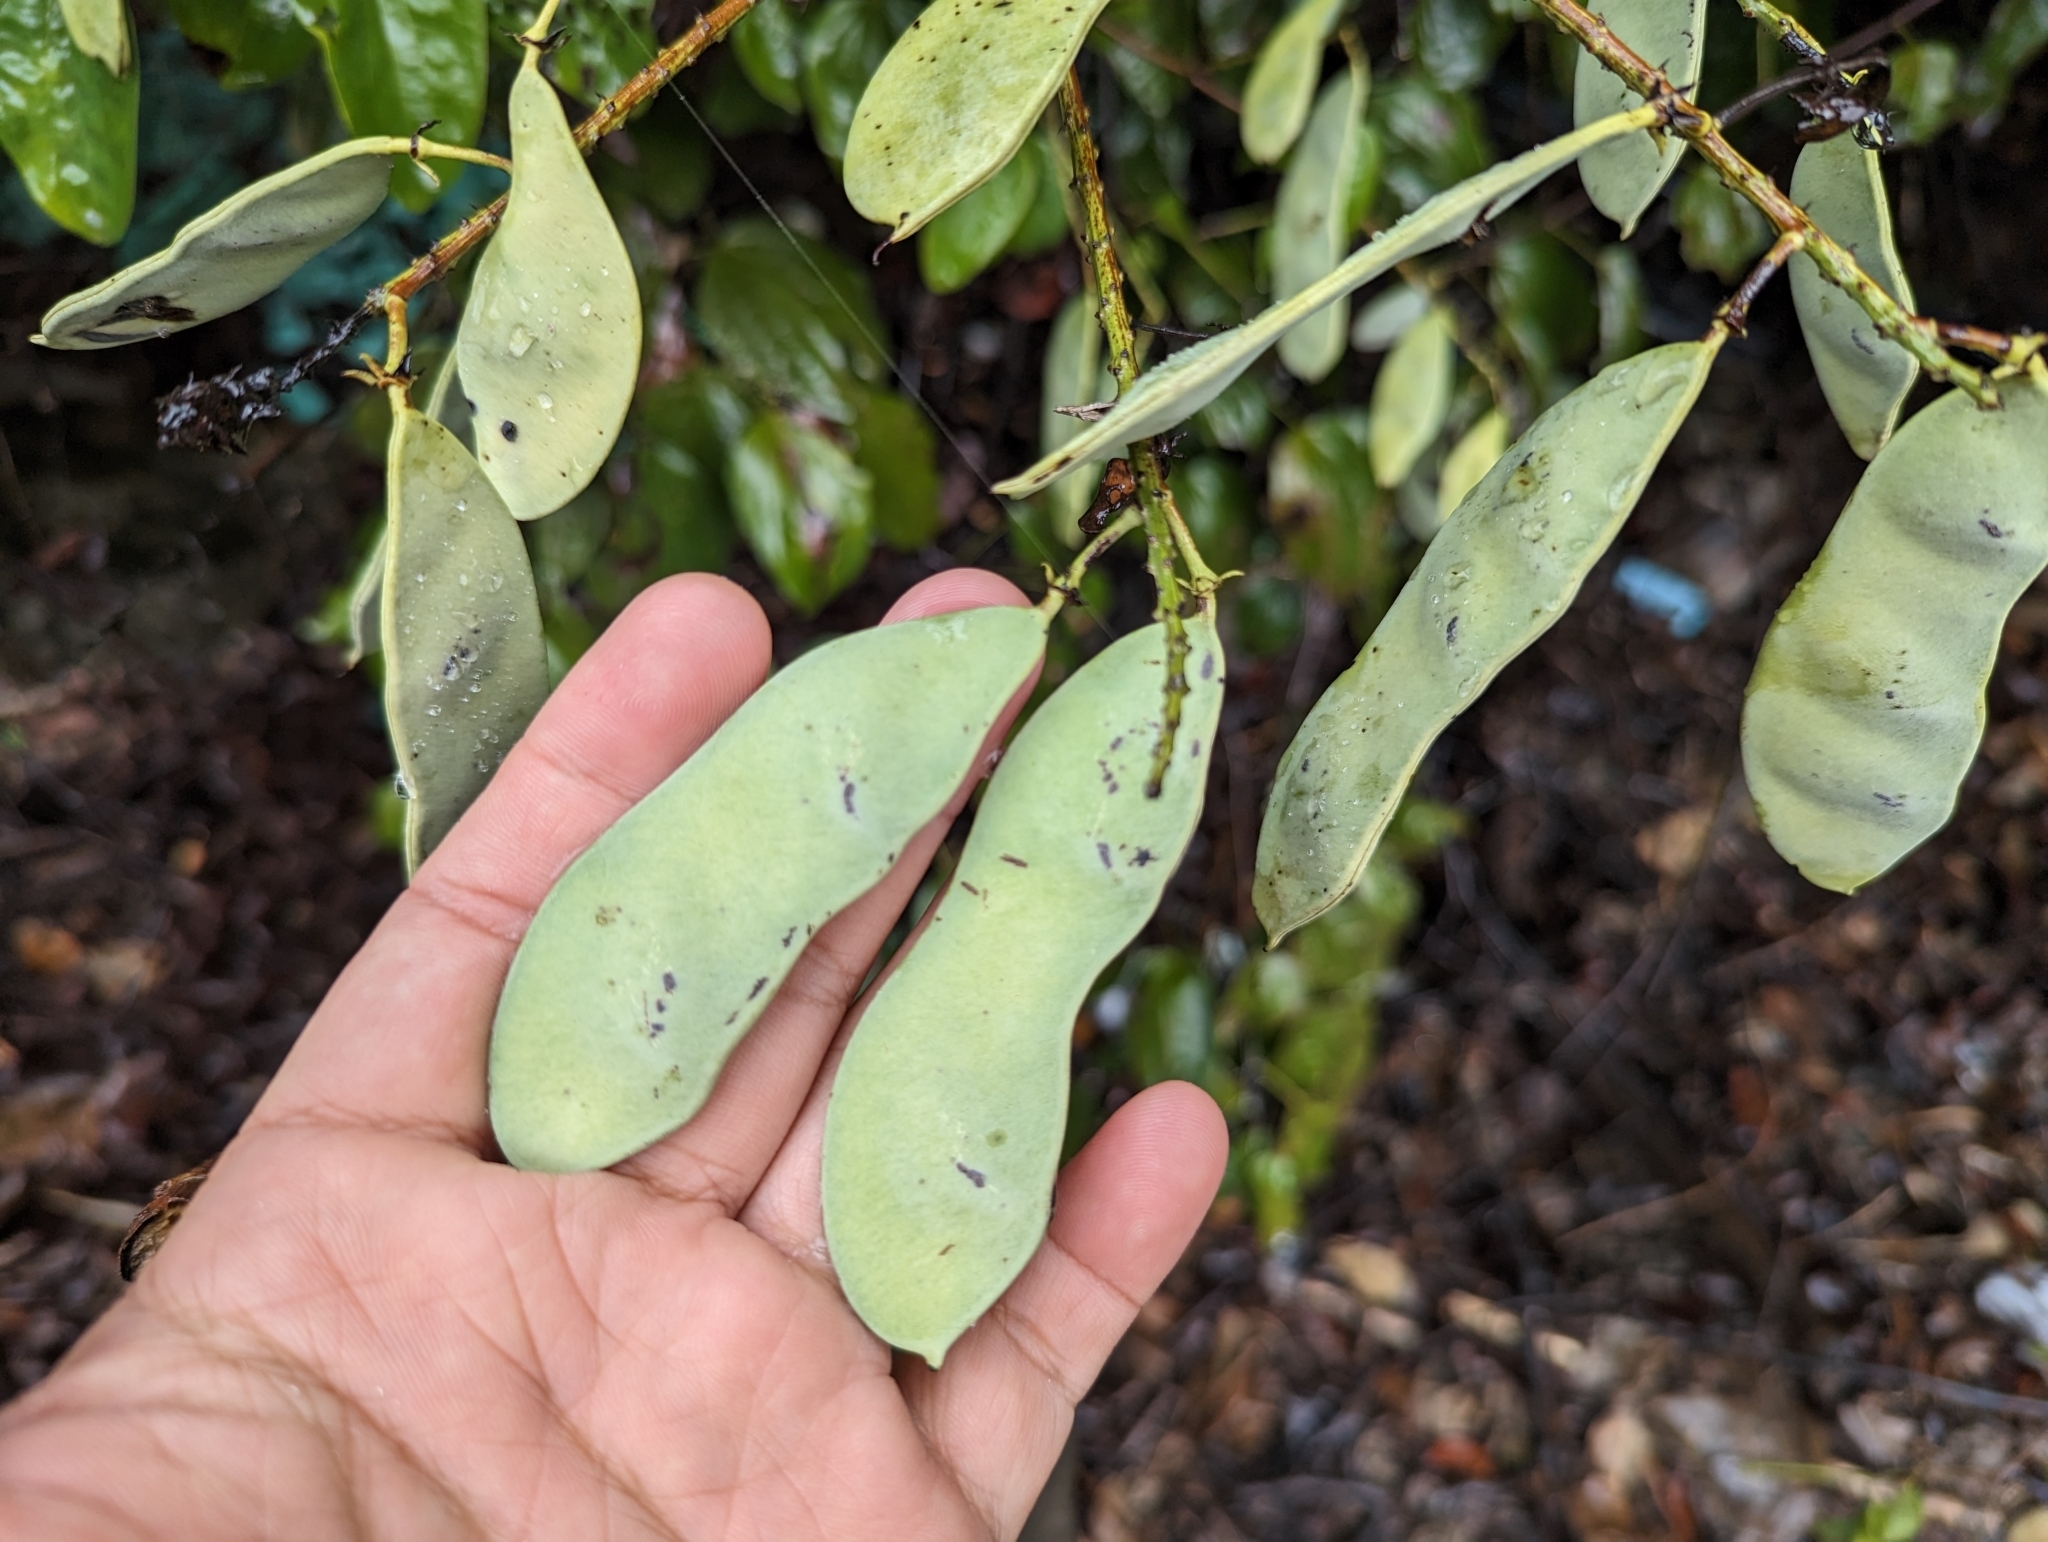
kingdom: Plantae
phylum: Tracheophyta
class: Magnoliopsida
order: Fabales
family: Fabaceae
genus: Phanera
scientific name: Phanera championii
